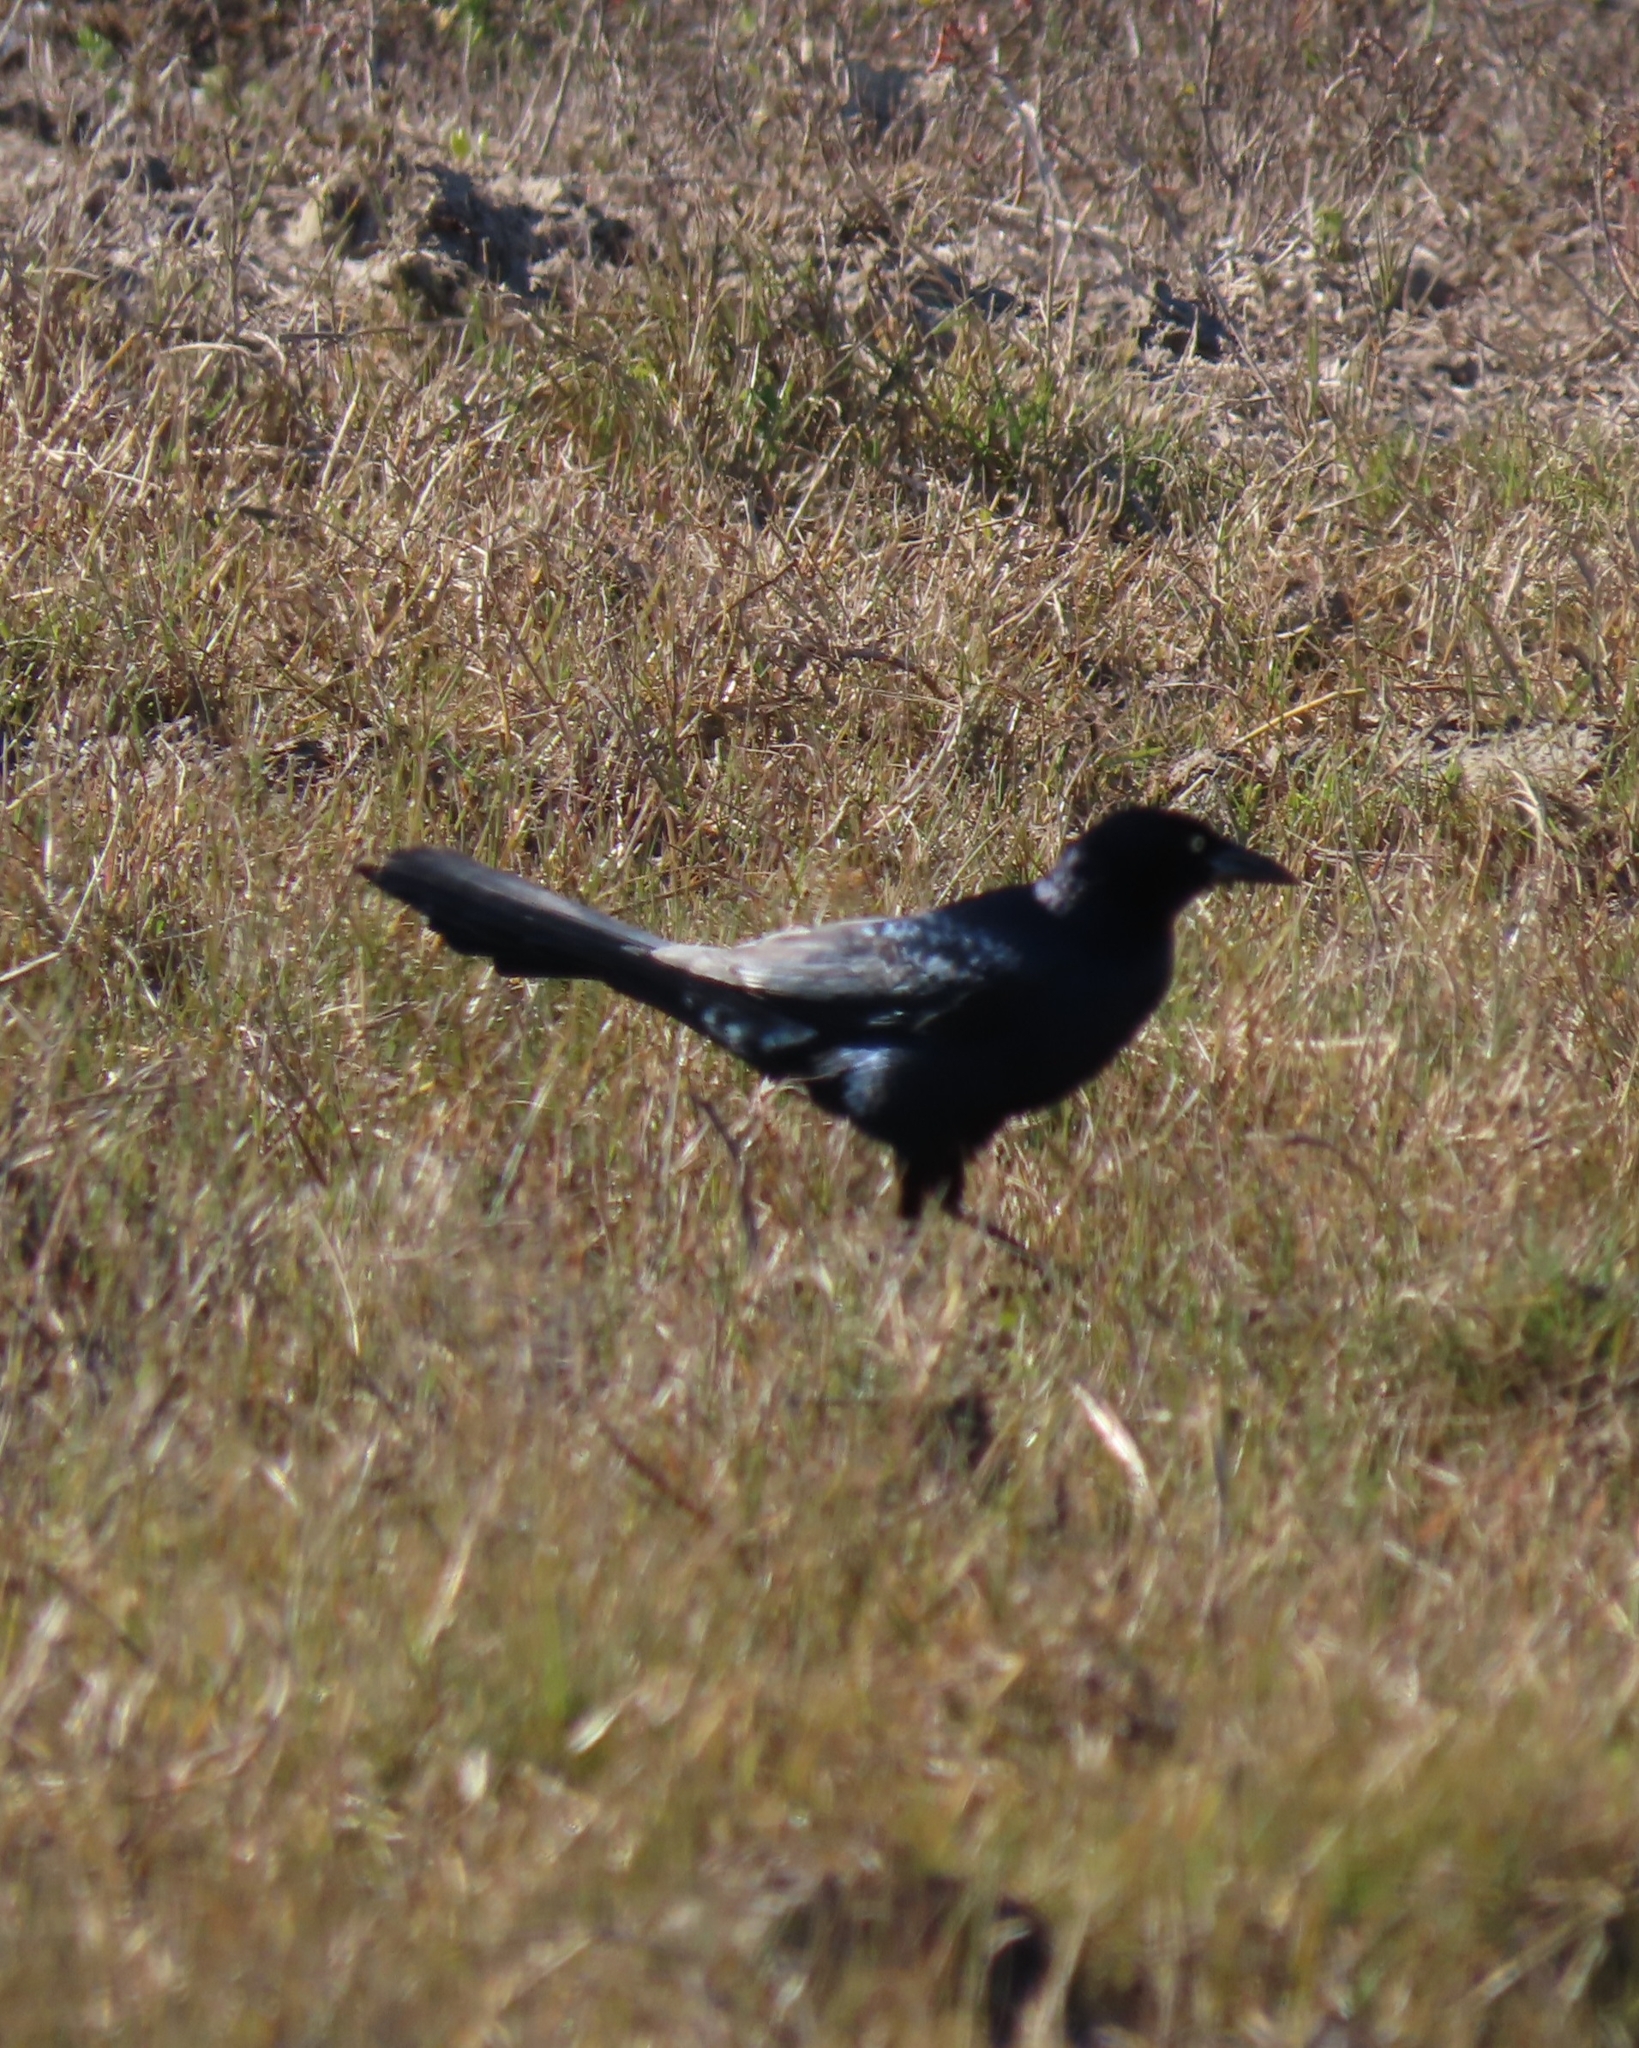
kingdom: Animalia
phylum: Chordata
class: Aves
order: Passeriformes
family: Icteridae
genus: Quiscalus
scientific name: Quiscalus mexicanus
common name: Great-tailed grackle
